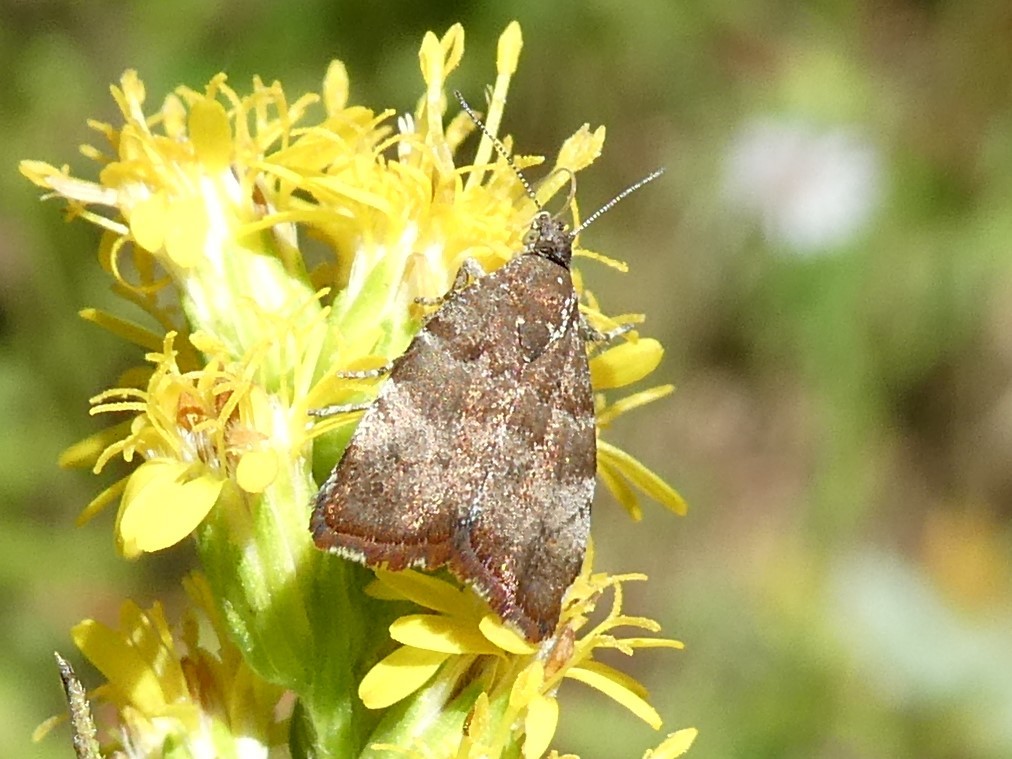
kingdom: Animalia
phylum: Arthropoda
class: Insecta
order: Lepidoptera
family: Choreutidae
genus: Choreutis
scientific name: Choreutis pariana
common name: Apple leaf skeletoniser
